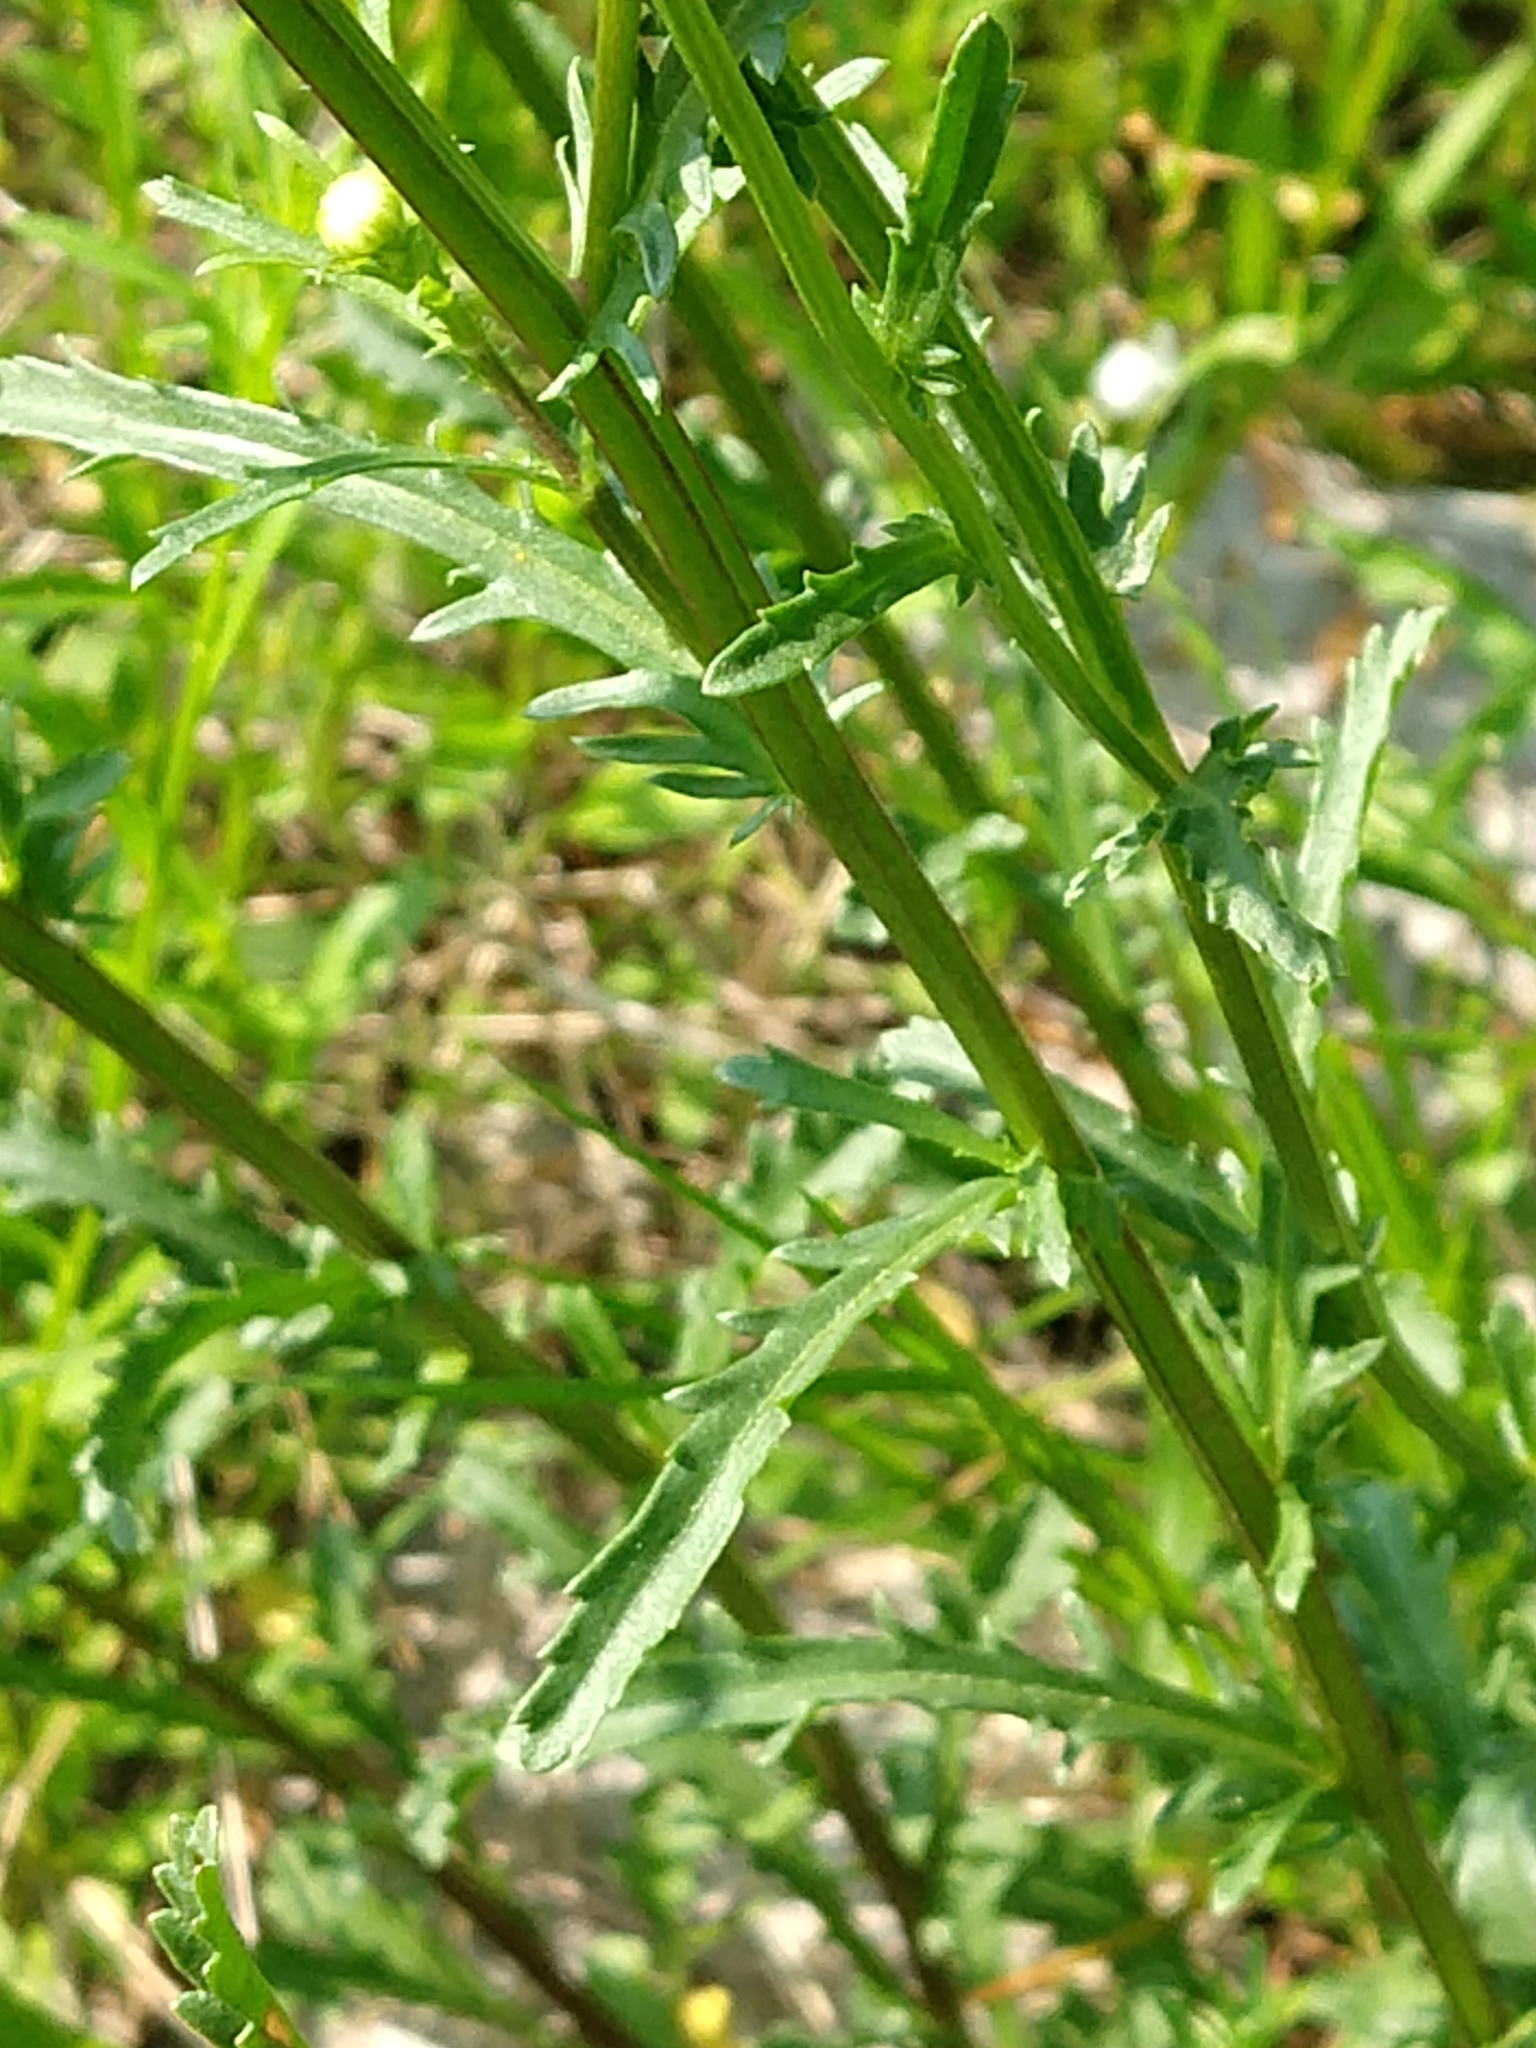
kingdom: Plantae
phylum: Tracheophyta
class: Magnoliopsida
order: Asterales
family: Asteraceae
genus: Leucanthemum
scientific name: Leucanthemum vulgare
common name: Oxeye daisy
